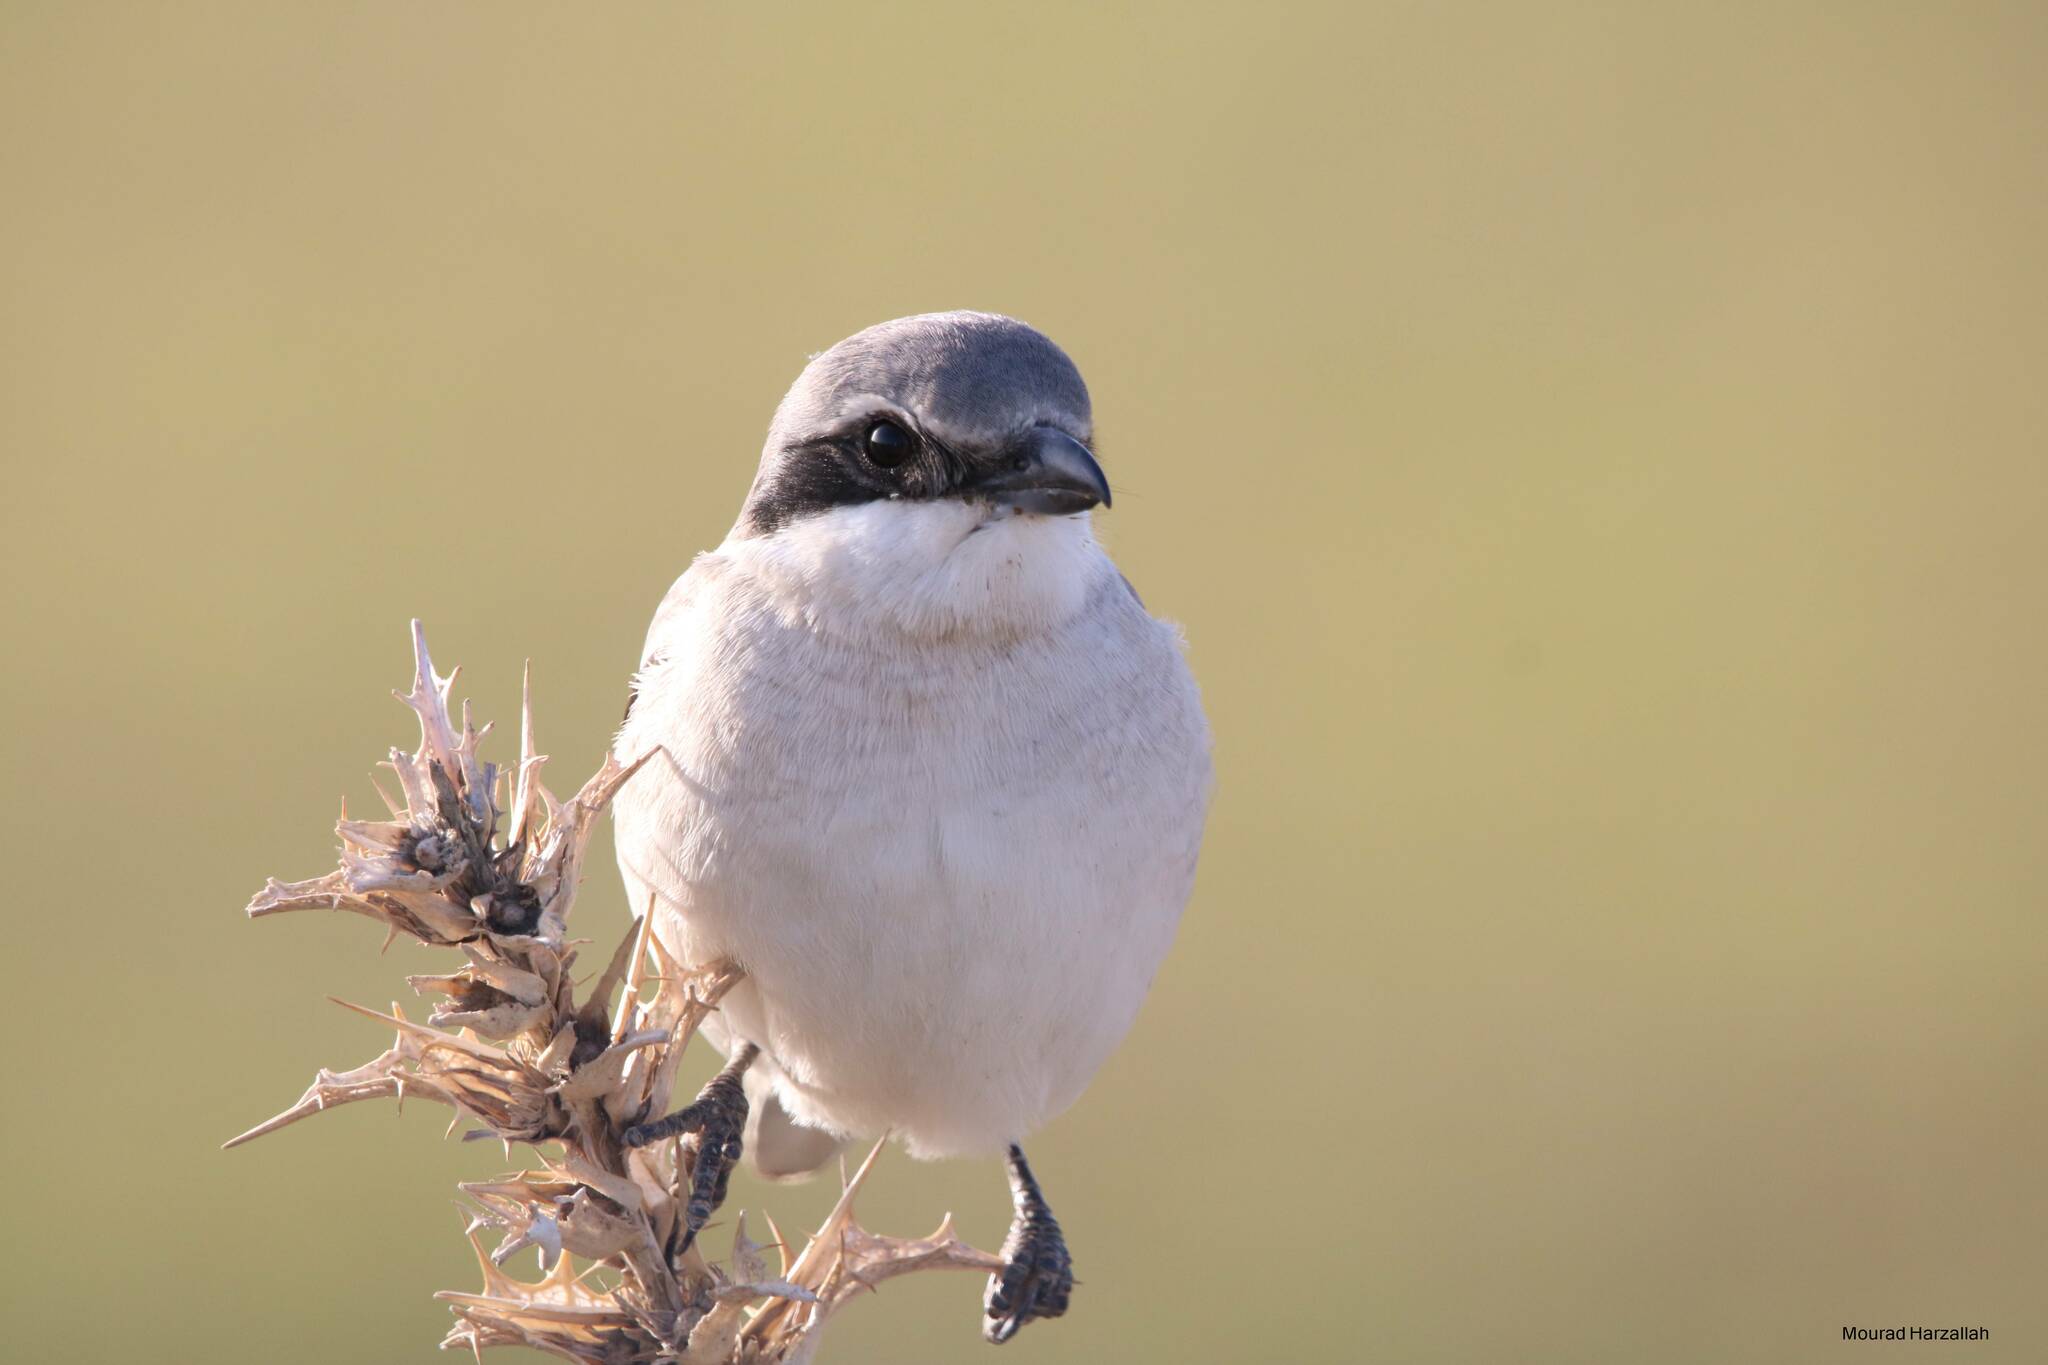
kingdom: Animalia
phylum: Chordata
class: Aves
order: Passeriformes
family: Laniidae
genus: Lanius
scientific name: Lanius excubitor
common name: Great grey shrike
